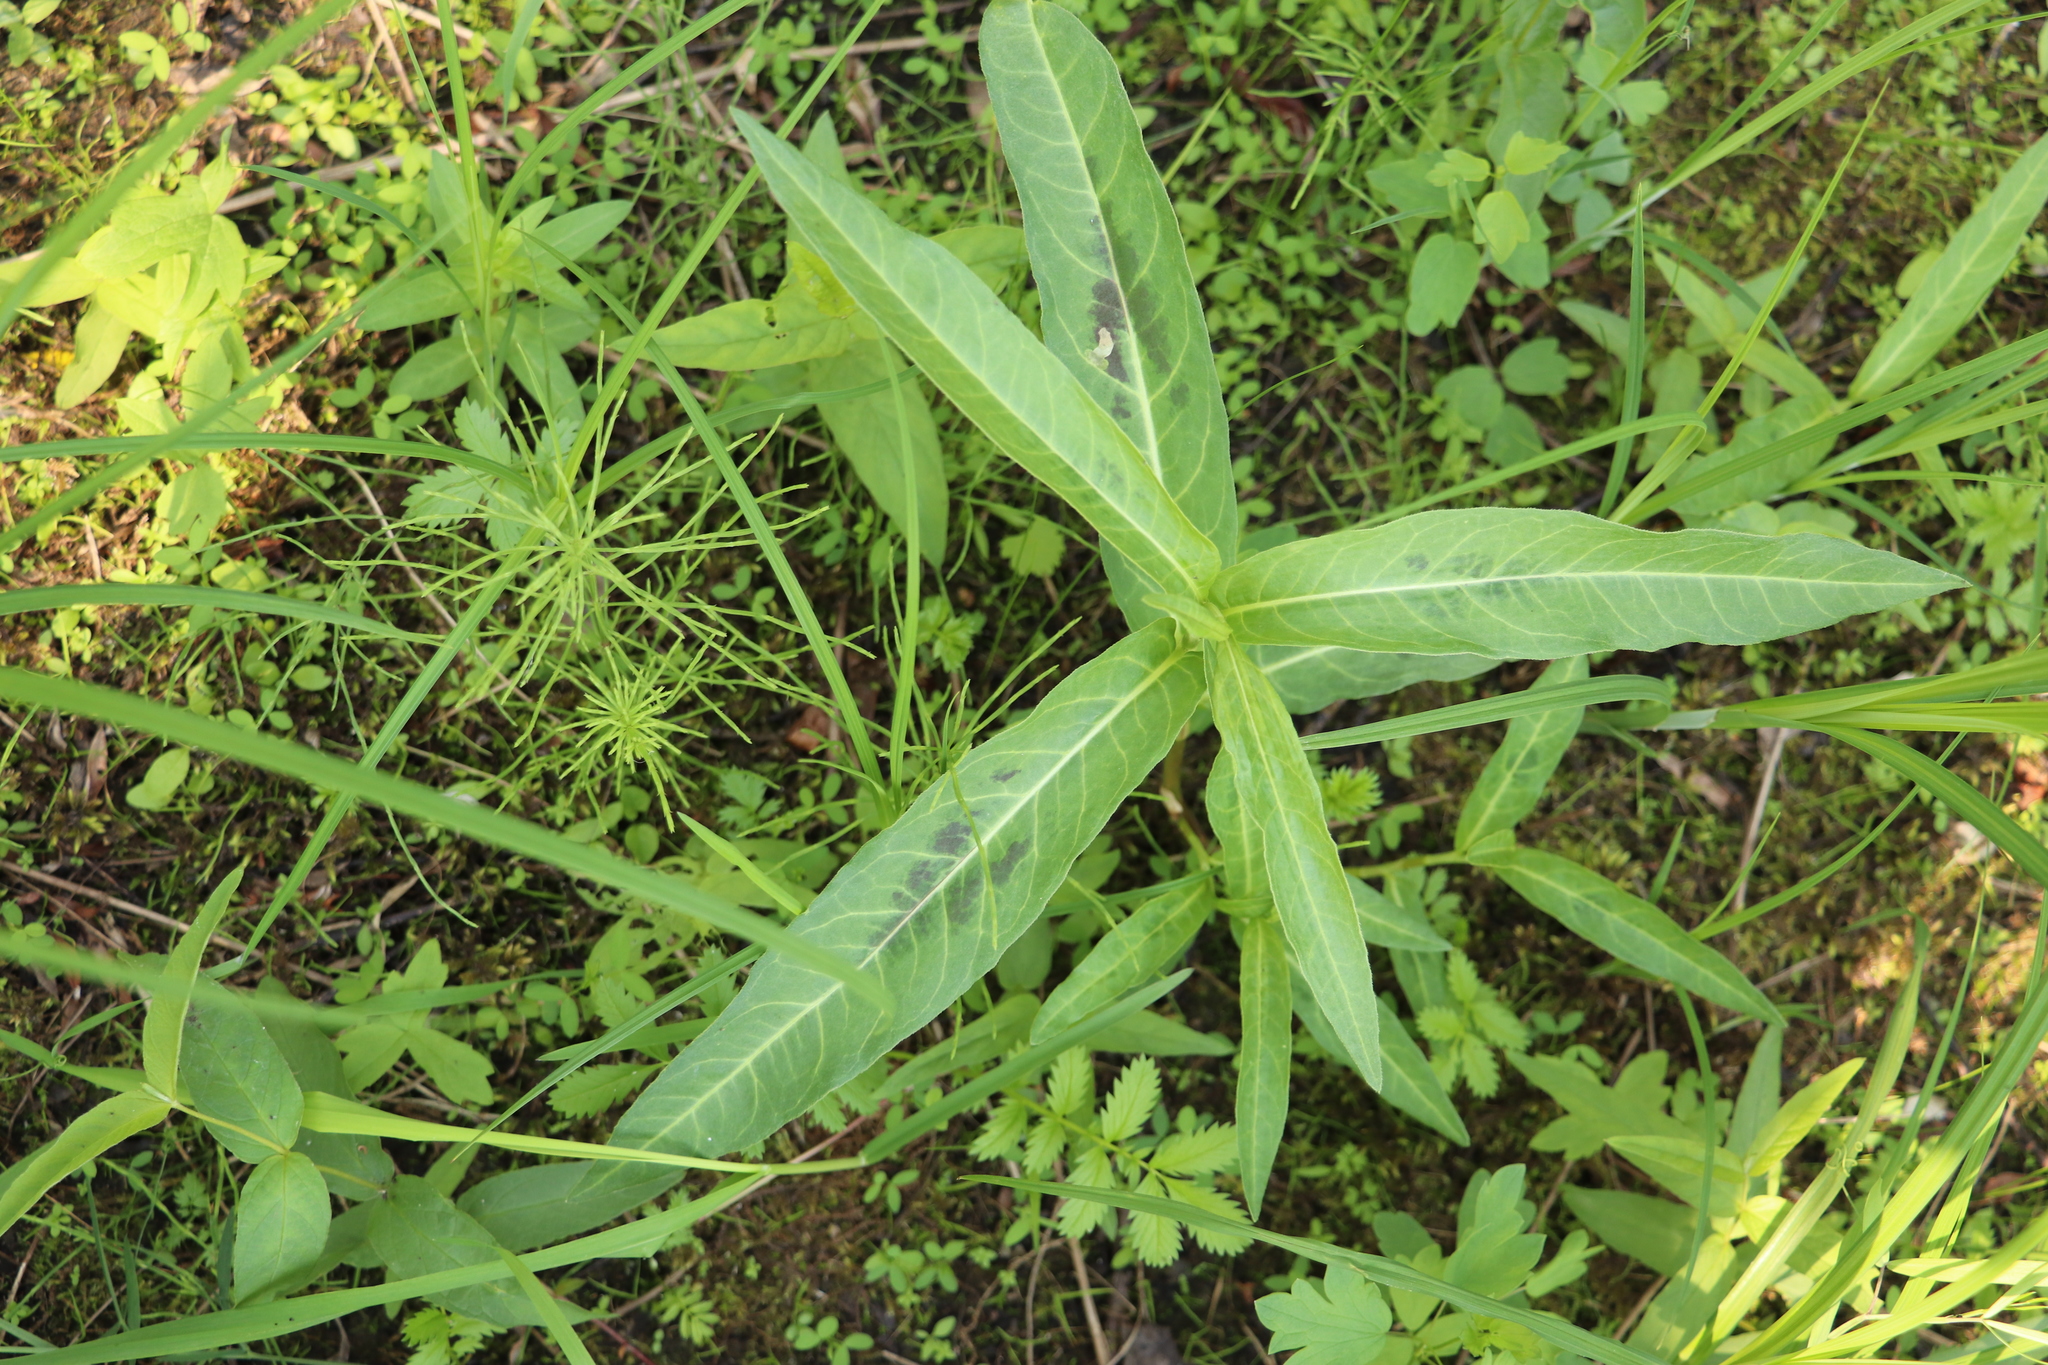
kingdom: Plantae
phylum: Tracheophyta
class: Magnoliopsida
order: Caryophyllales
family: Polygonaceae
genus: Persicaria
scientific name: Persicaria amphibia
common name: Amphibious bistort
